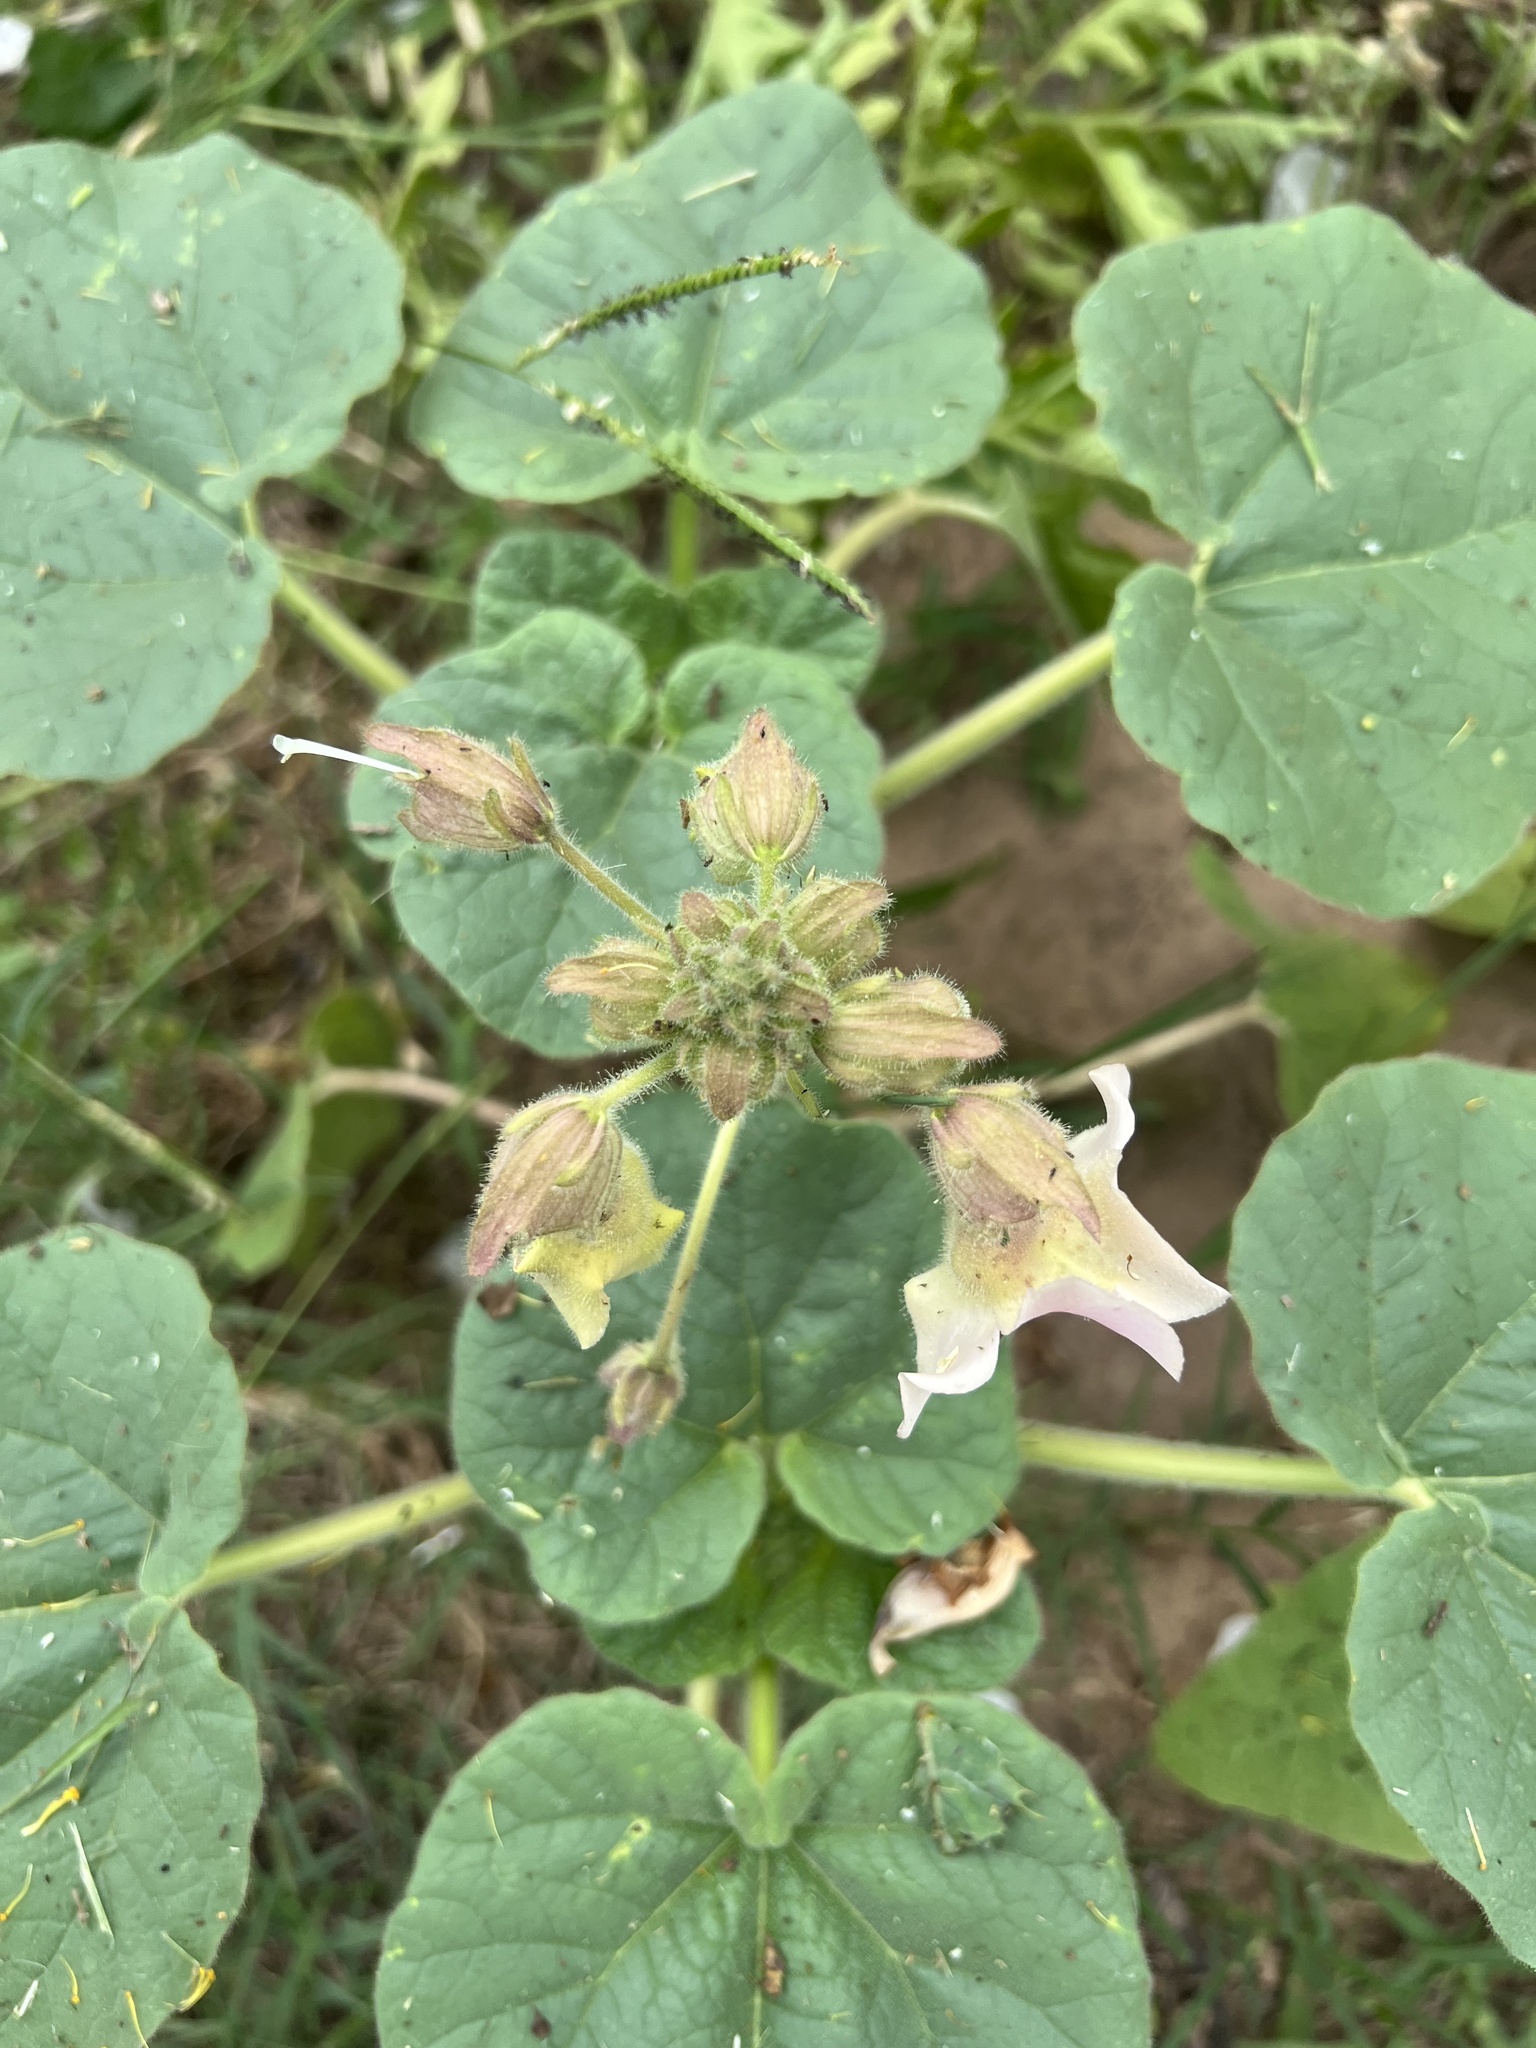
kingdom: Plantae
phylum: Tracheophyta
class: Magnoliopsida
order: Lamiales
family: Martyniaceae
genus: Proboscidea
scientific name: Proboscidea louisianica
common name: Elephant tusks
